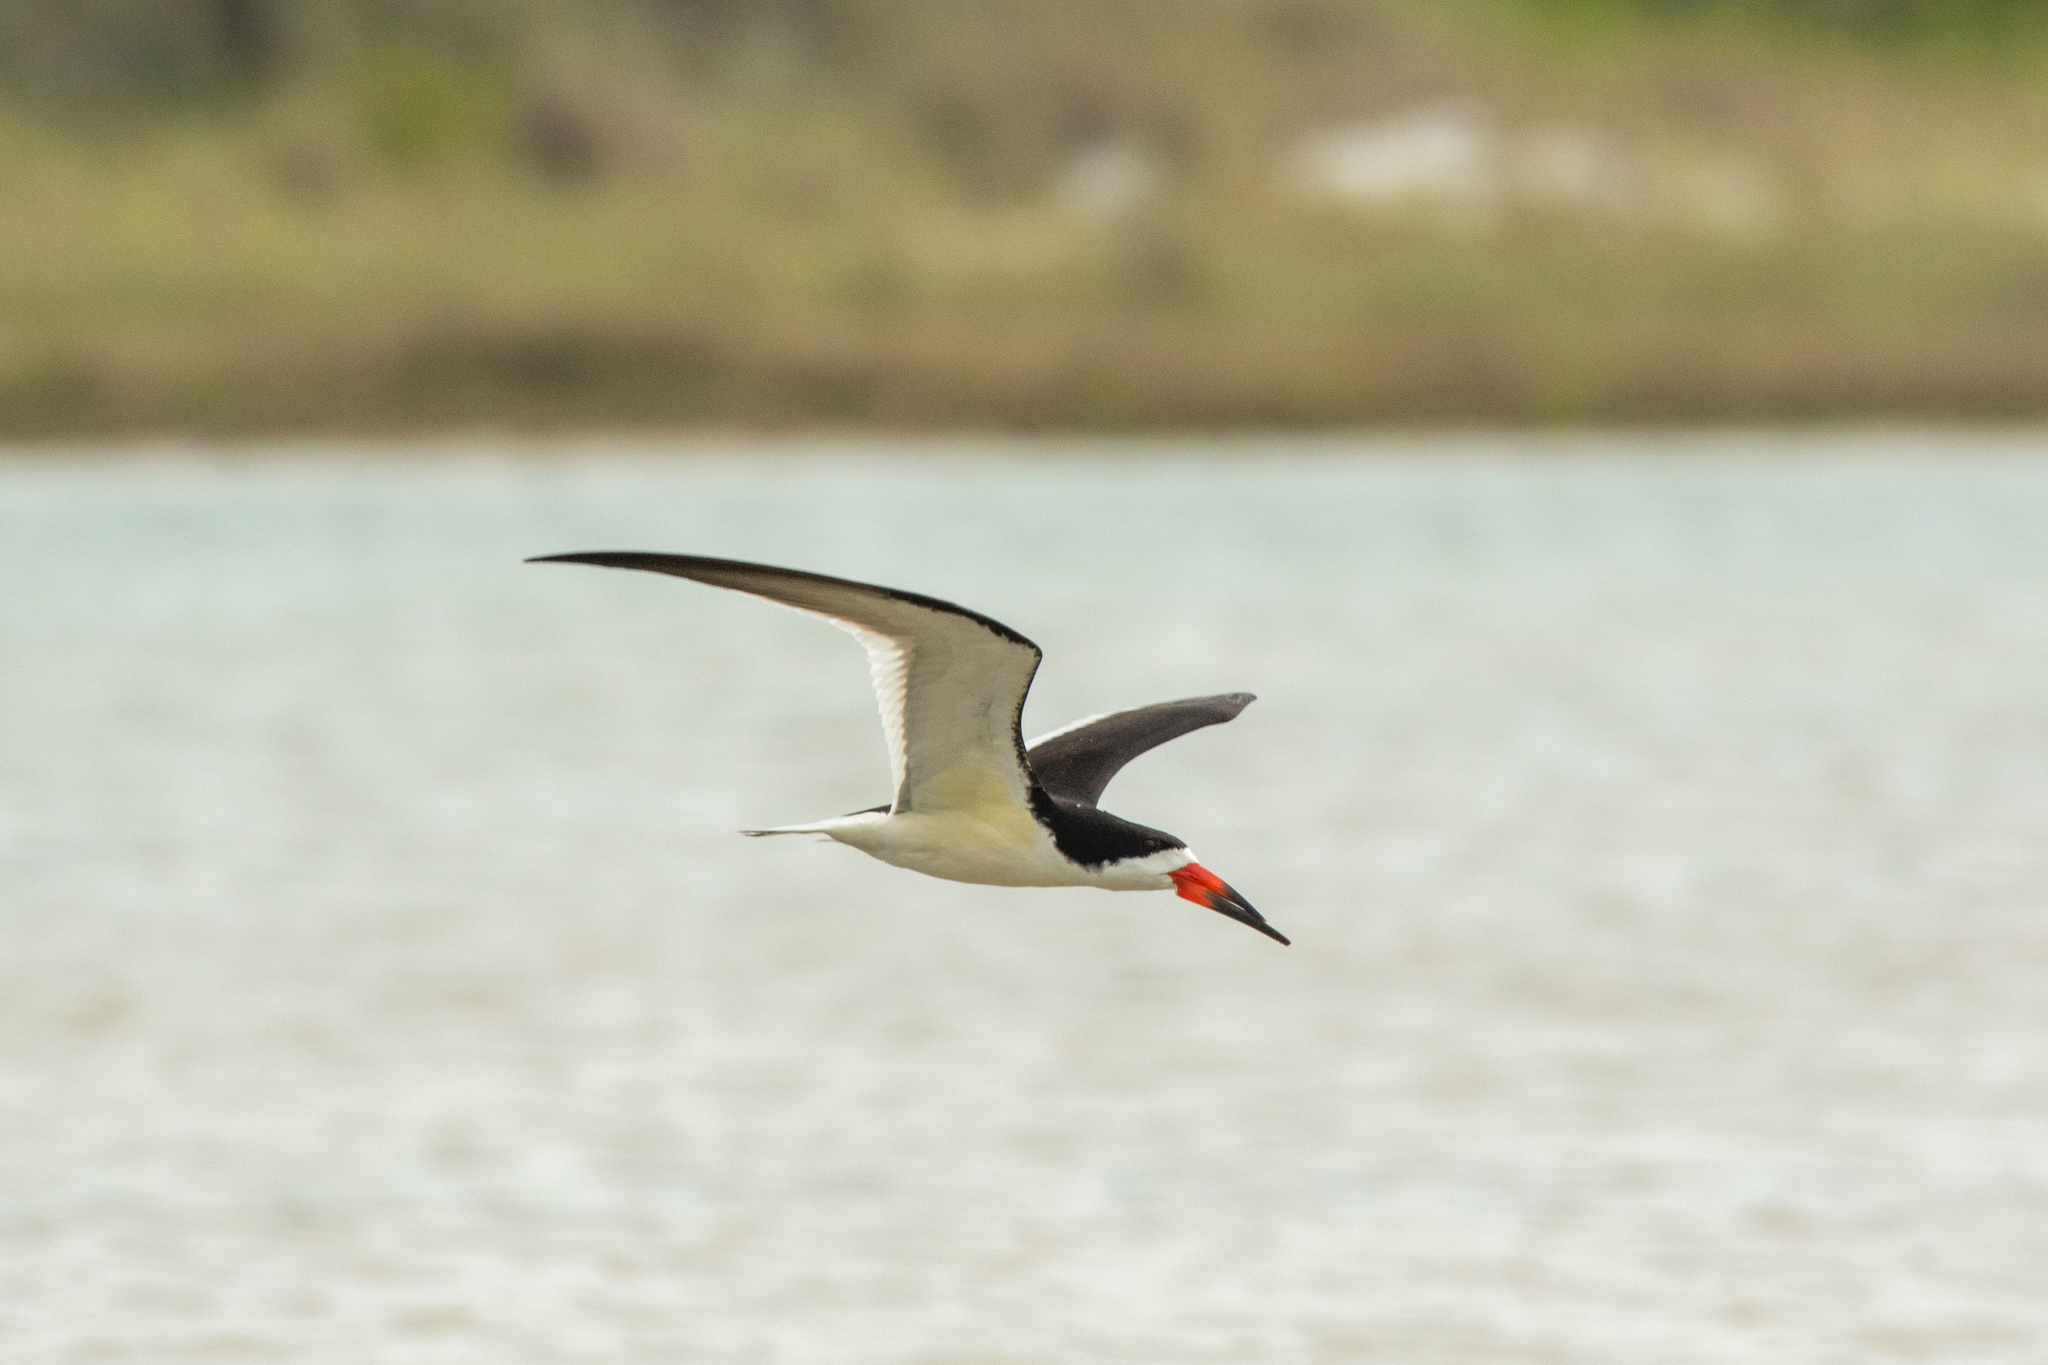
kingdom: Animalia
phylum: Chordata
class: Aves
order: Charadriiformes
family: Laridae
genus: Rynchops
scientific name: Rynchops niger
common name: Black skimmer
